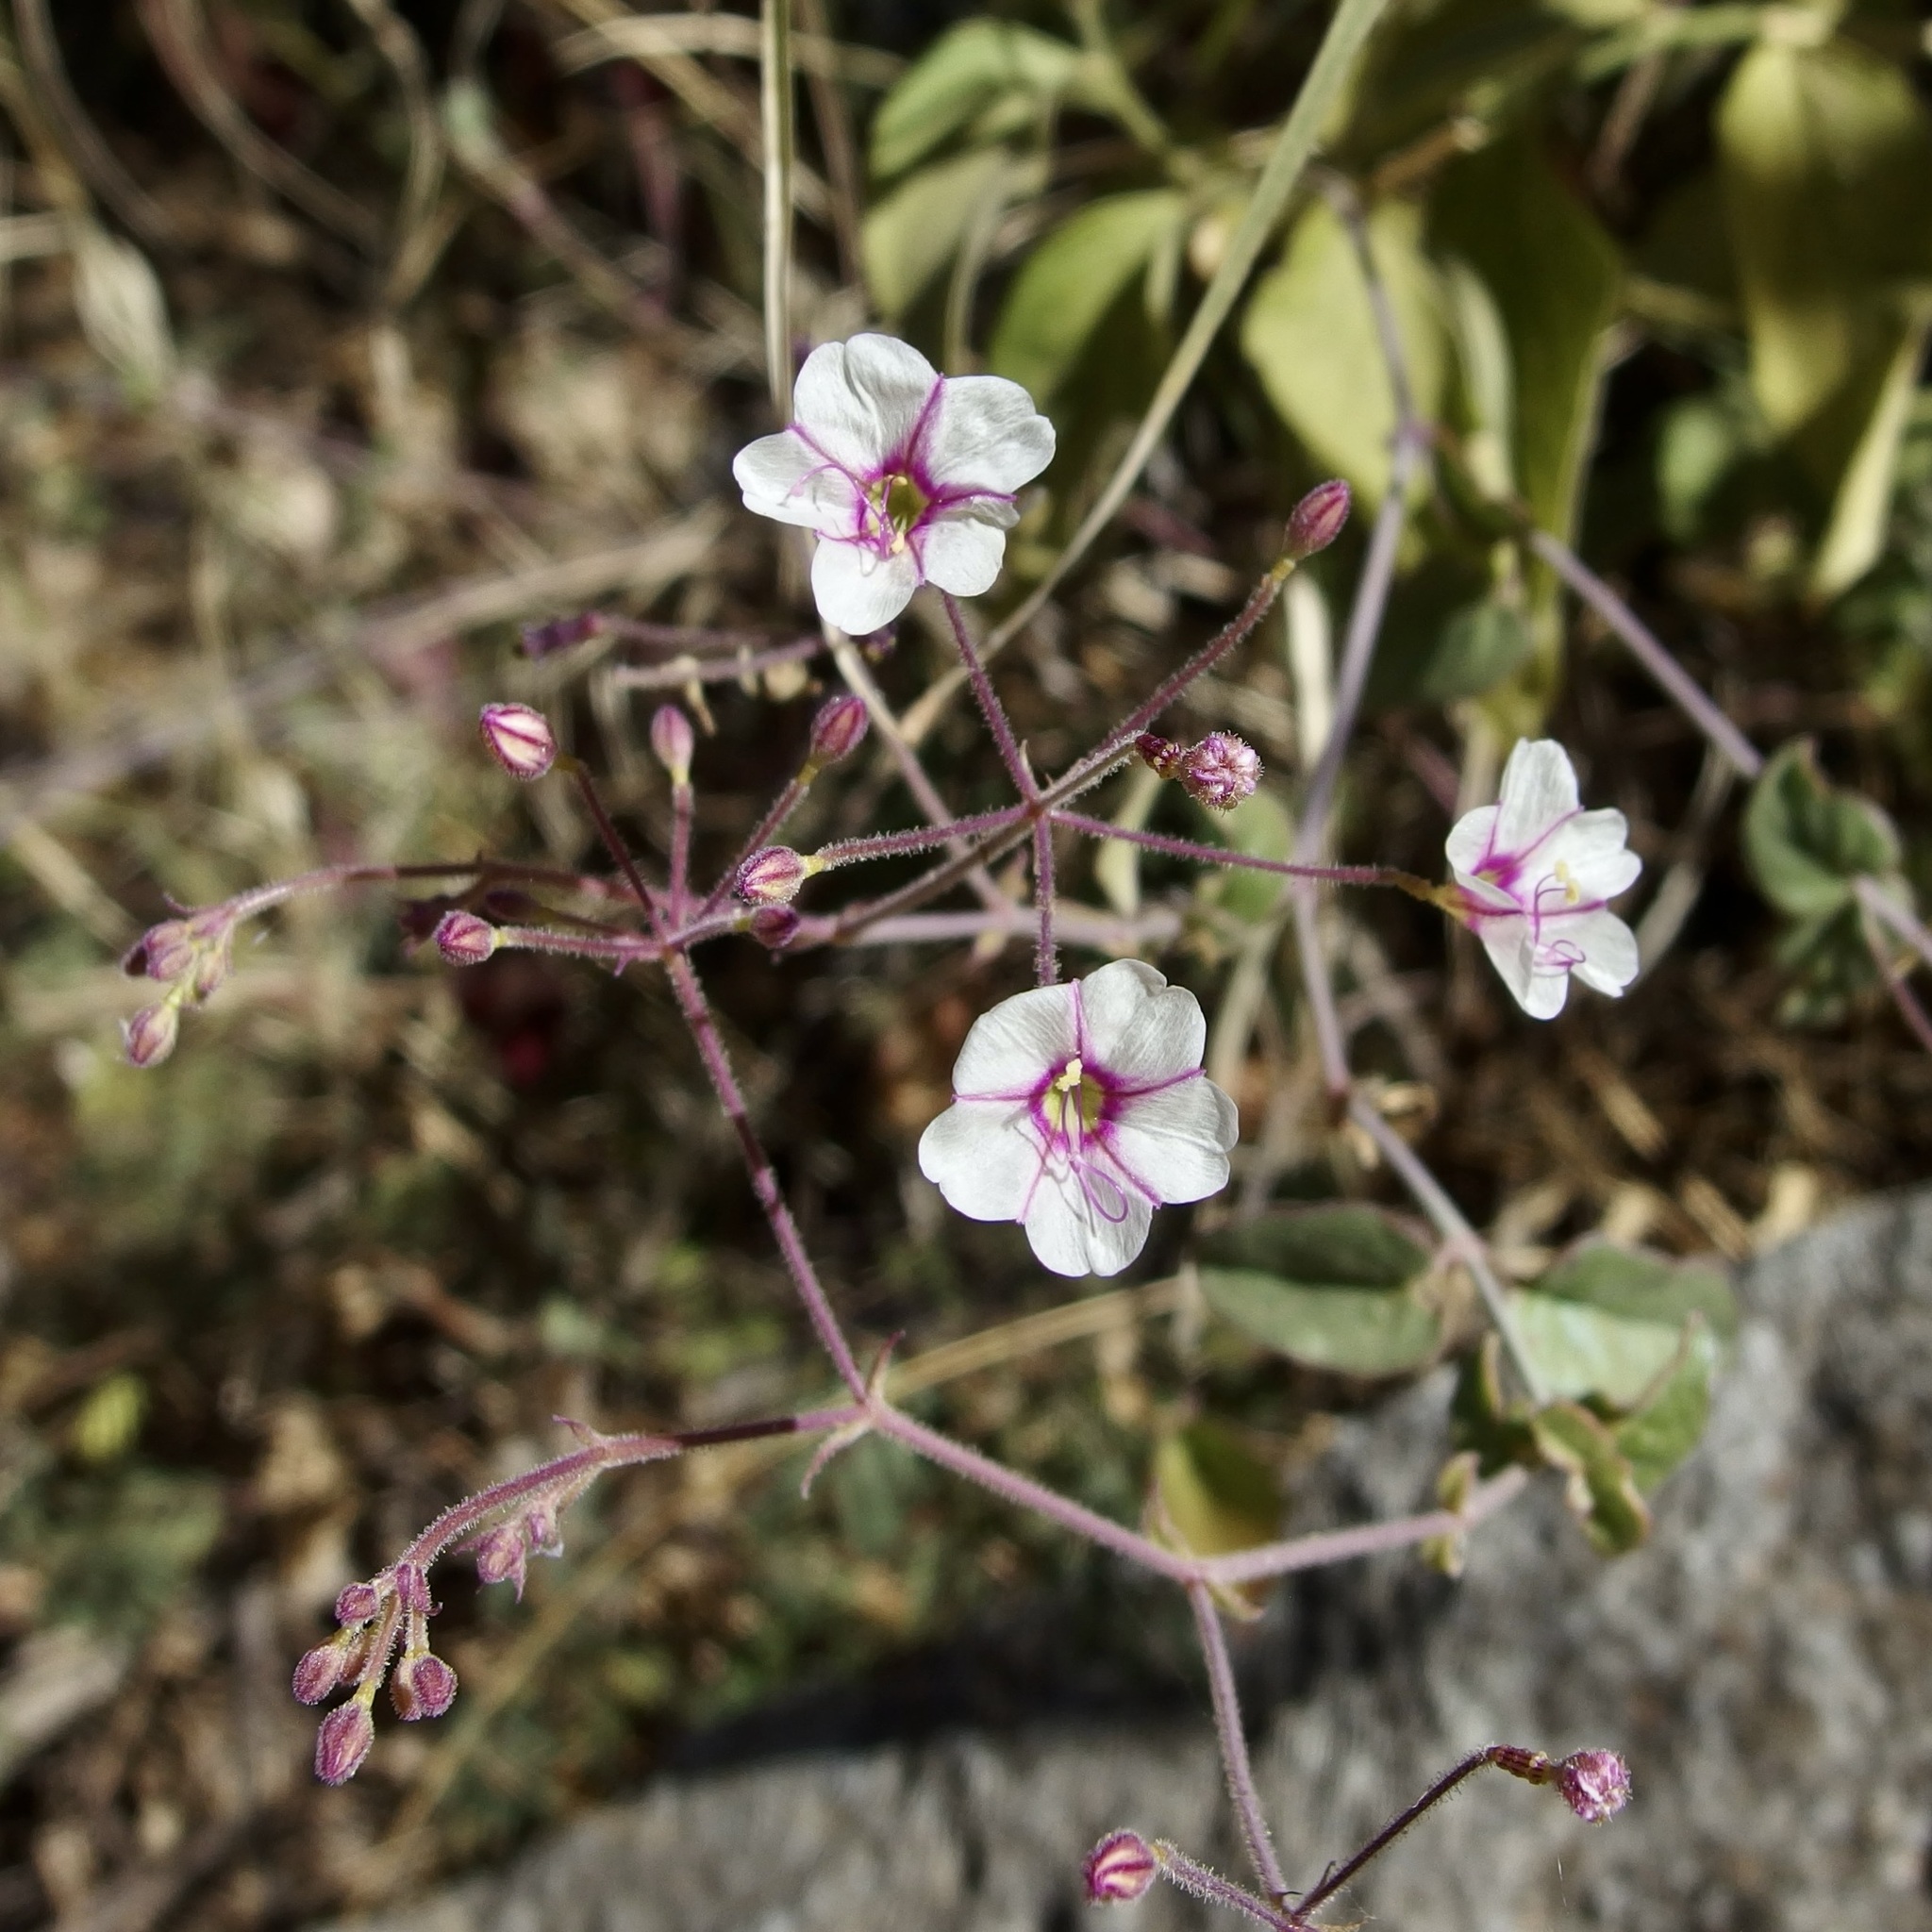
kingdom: Plantae
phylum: Tracheophyta
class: Magnoliopsida
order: Caryophyllales
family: Nyctaginaceae
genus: Commicarpus
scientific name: Commicarpus brandegeei
